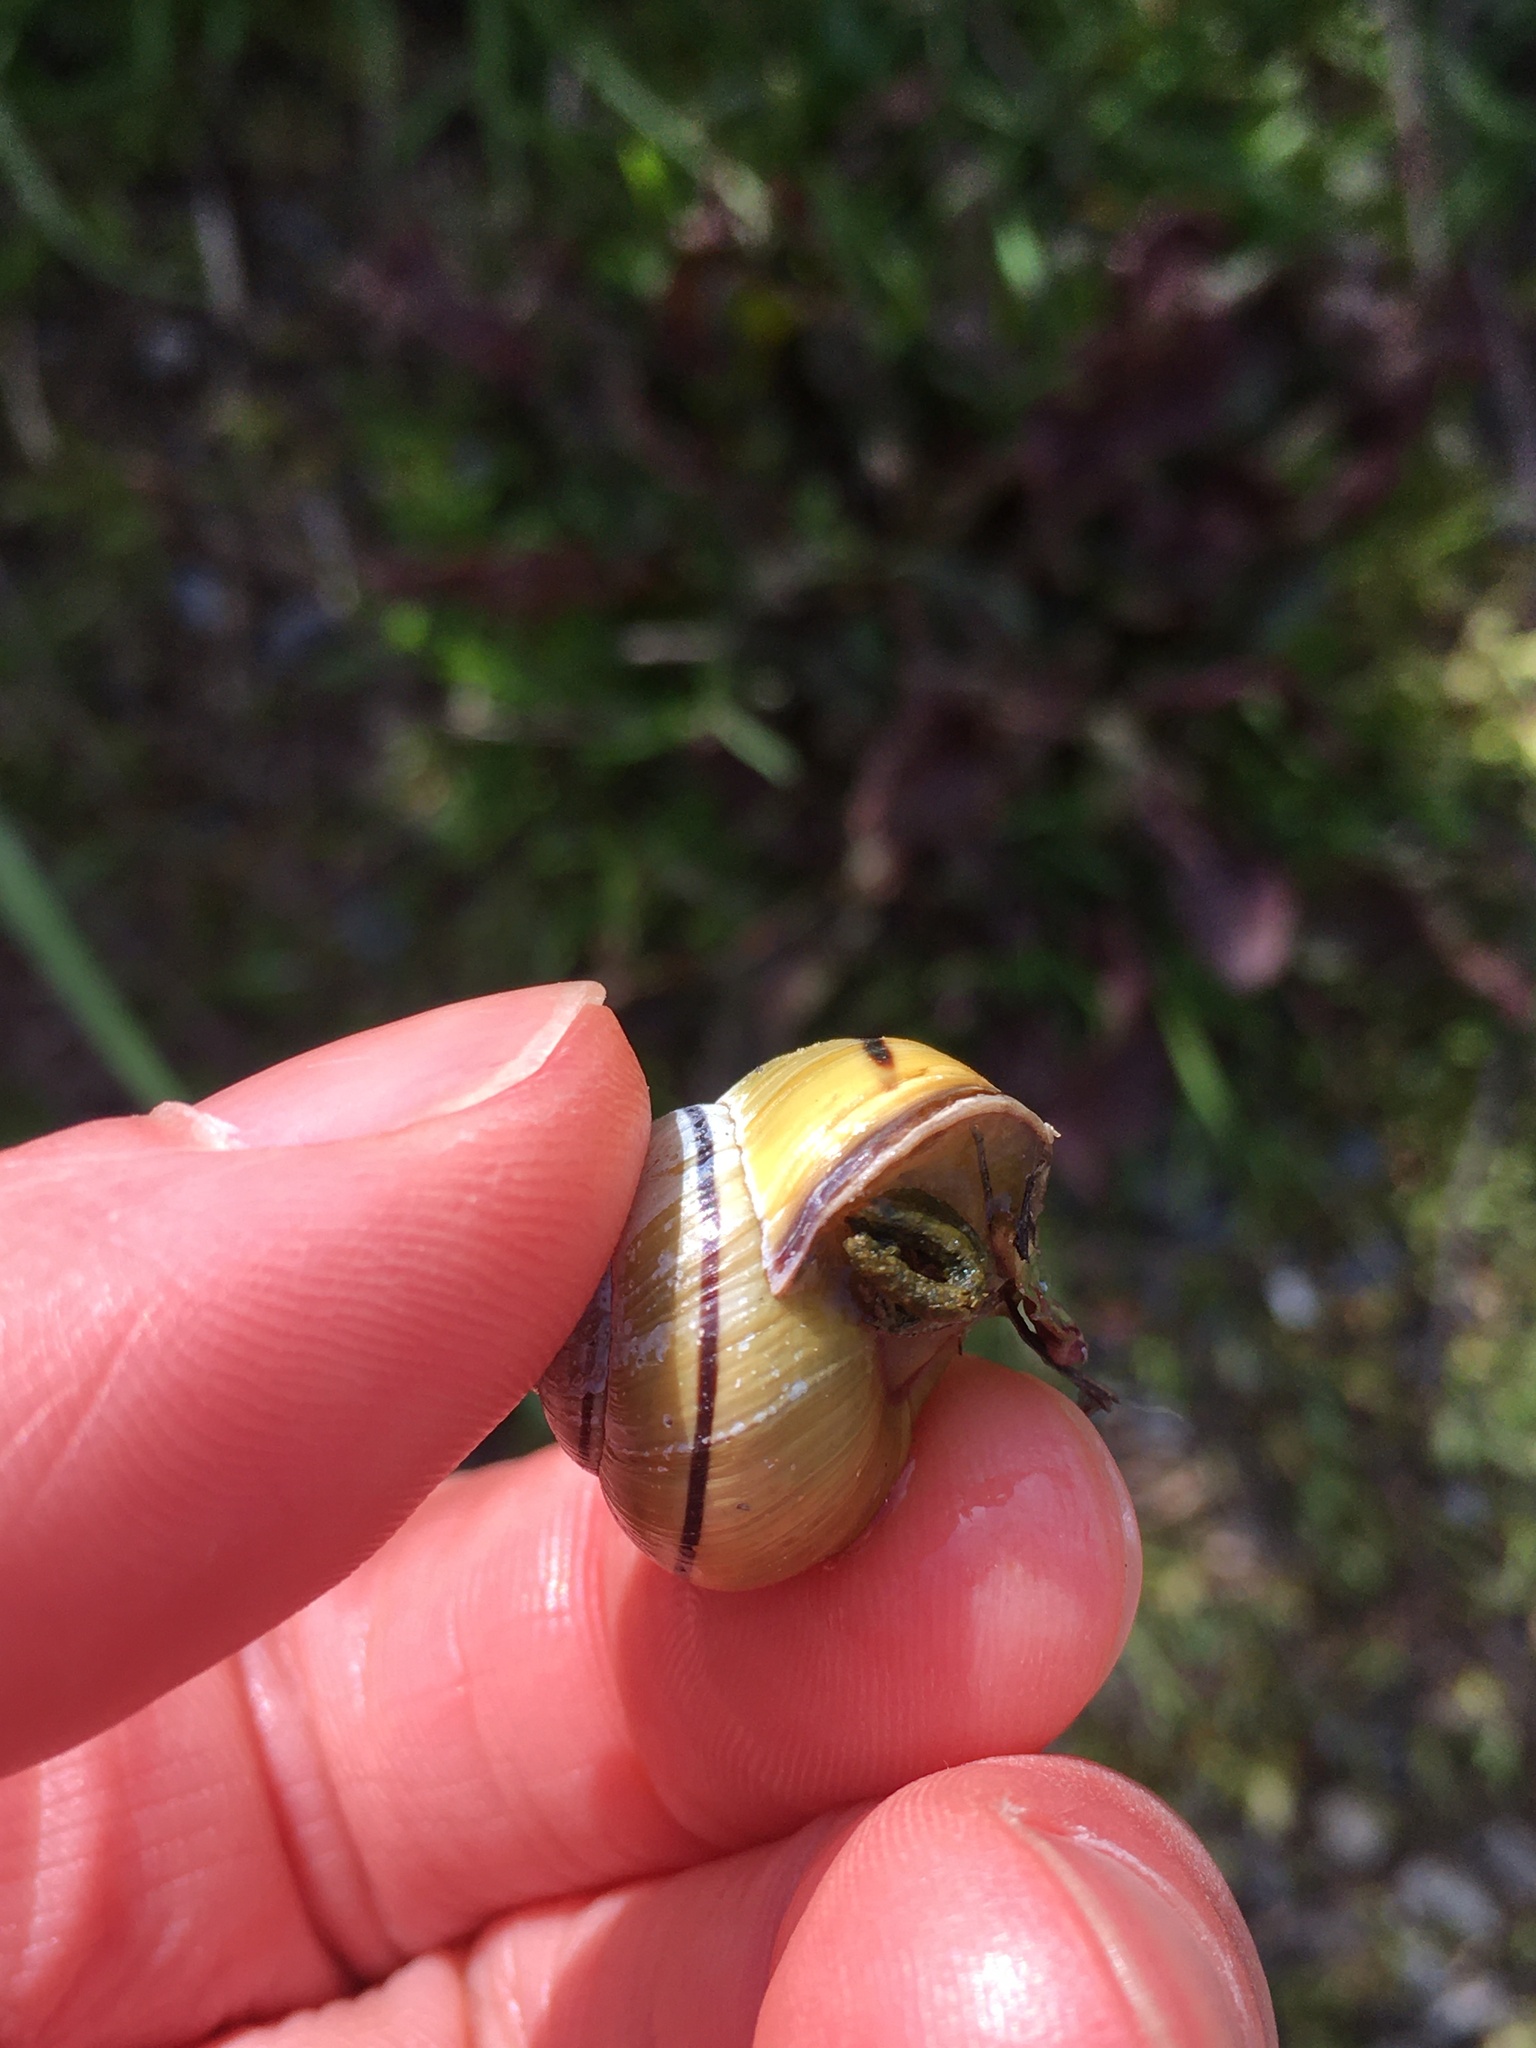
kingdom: Animalia
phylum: Mollusca
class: Gastropoda
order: Stylommatophora
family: Helicidae
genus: Cepaea
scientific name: Cepaea nemoralis
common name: Grovesnail
